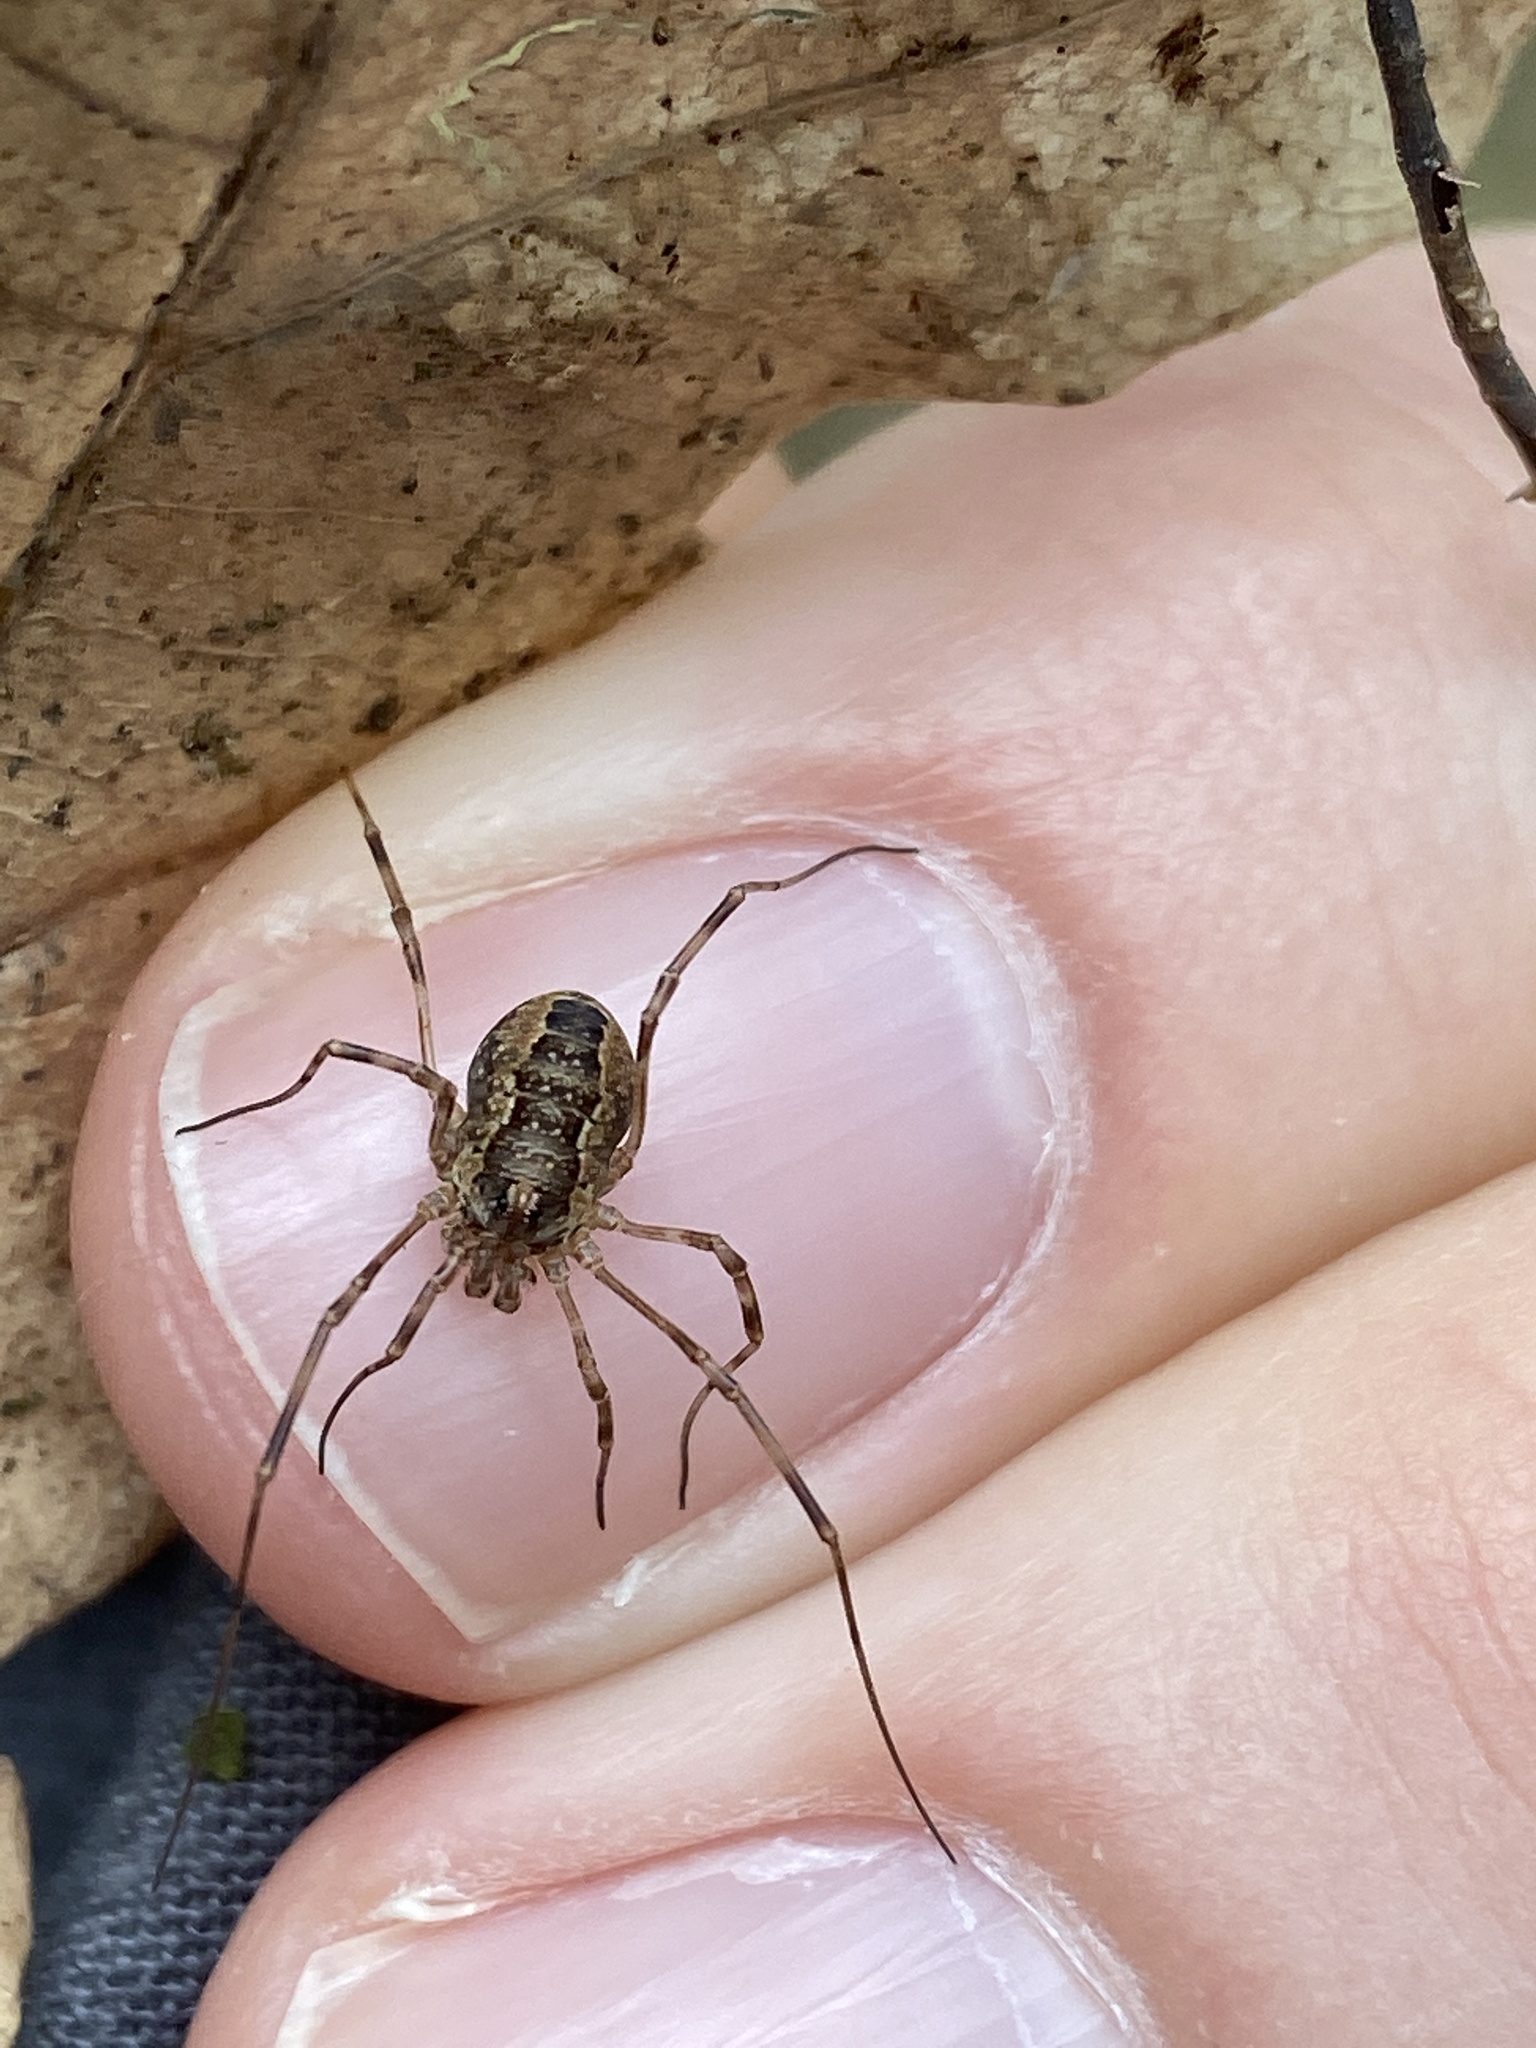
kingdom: Animalia
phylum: Arthropoda
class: Arachnida
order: Opiliones
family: Phalangiidae
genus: Rilaena
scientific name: Rilaena triangularis
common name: Spring harvestman
